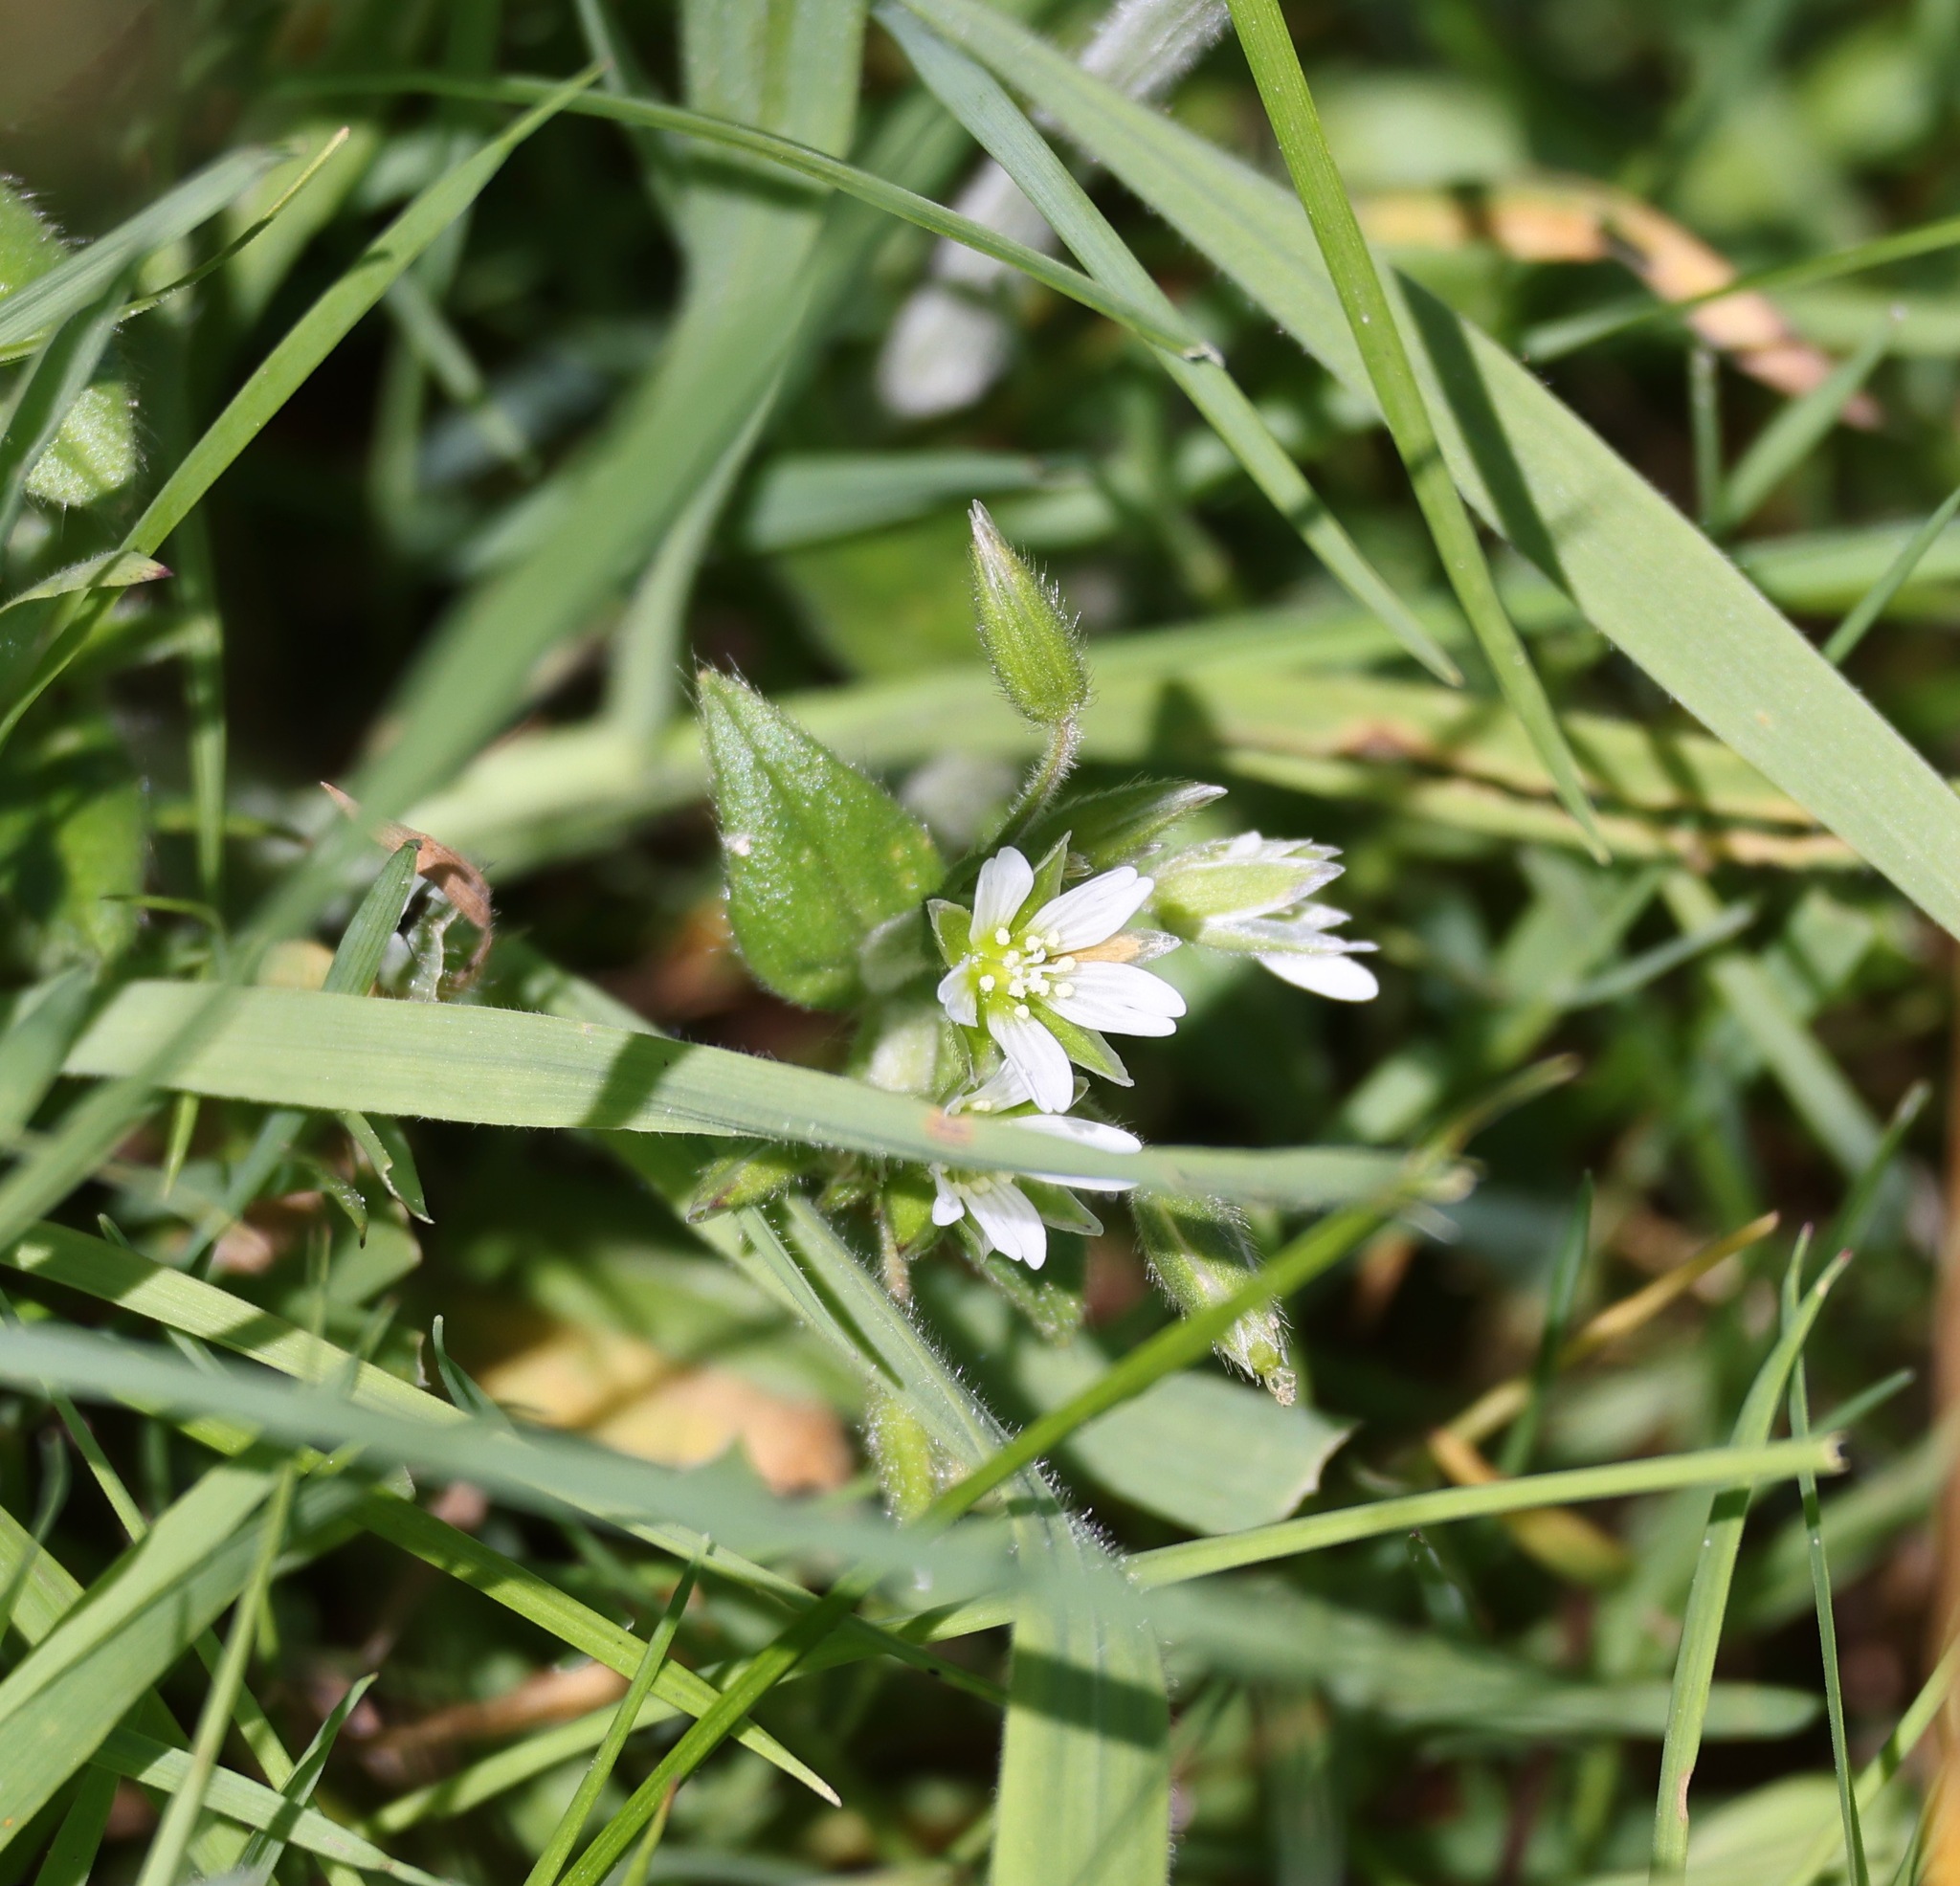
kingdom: Plantae
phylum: Tracheophyta
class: Magnoliopsida
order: Caryophyllales
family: Caryophyllaceae
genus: Cerastium
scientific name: Cerastium fontanum
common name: Common mouse-ear
